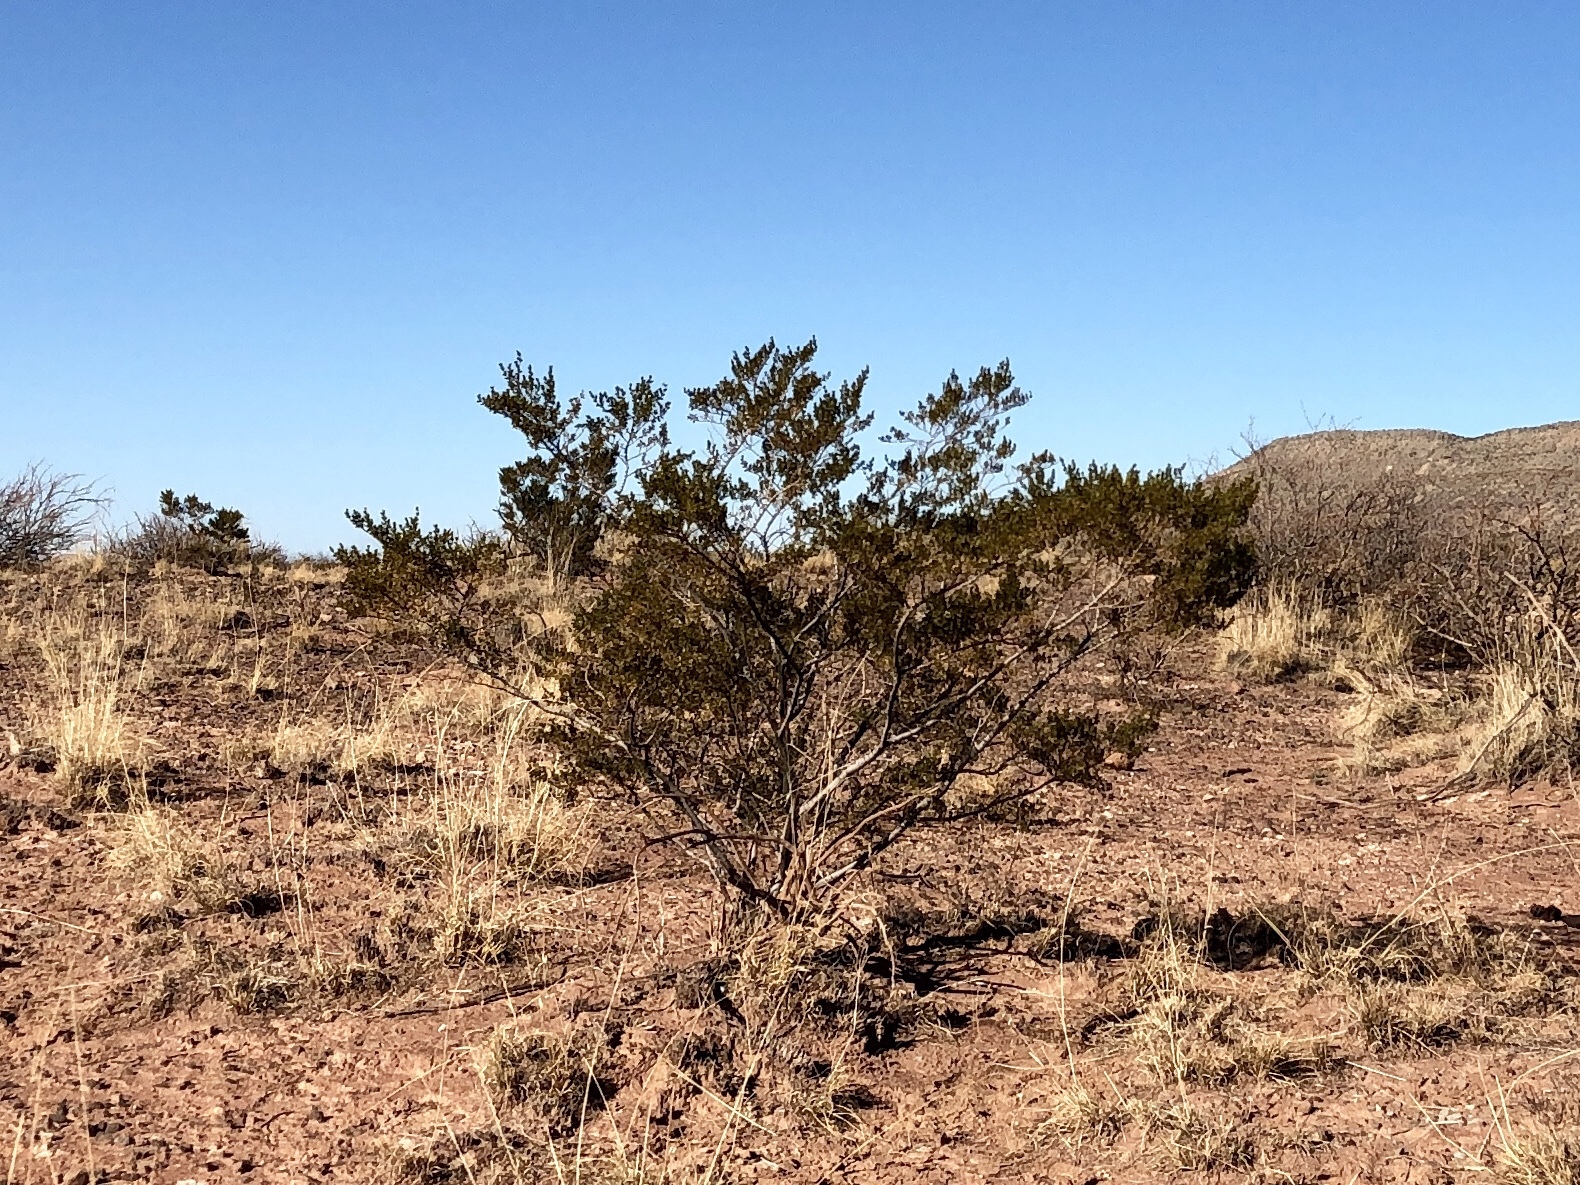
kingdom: Plantae
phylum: Tracheophyta
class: Magnoliopsida
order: Zygophyllales
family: Zygophyllaceae
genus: Larrea
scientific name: Larrea tridentata
